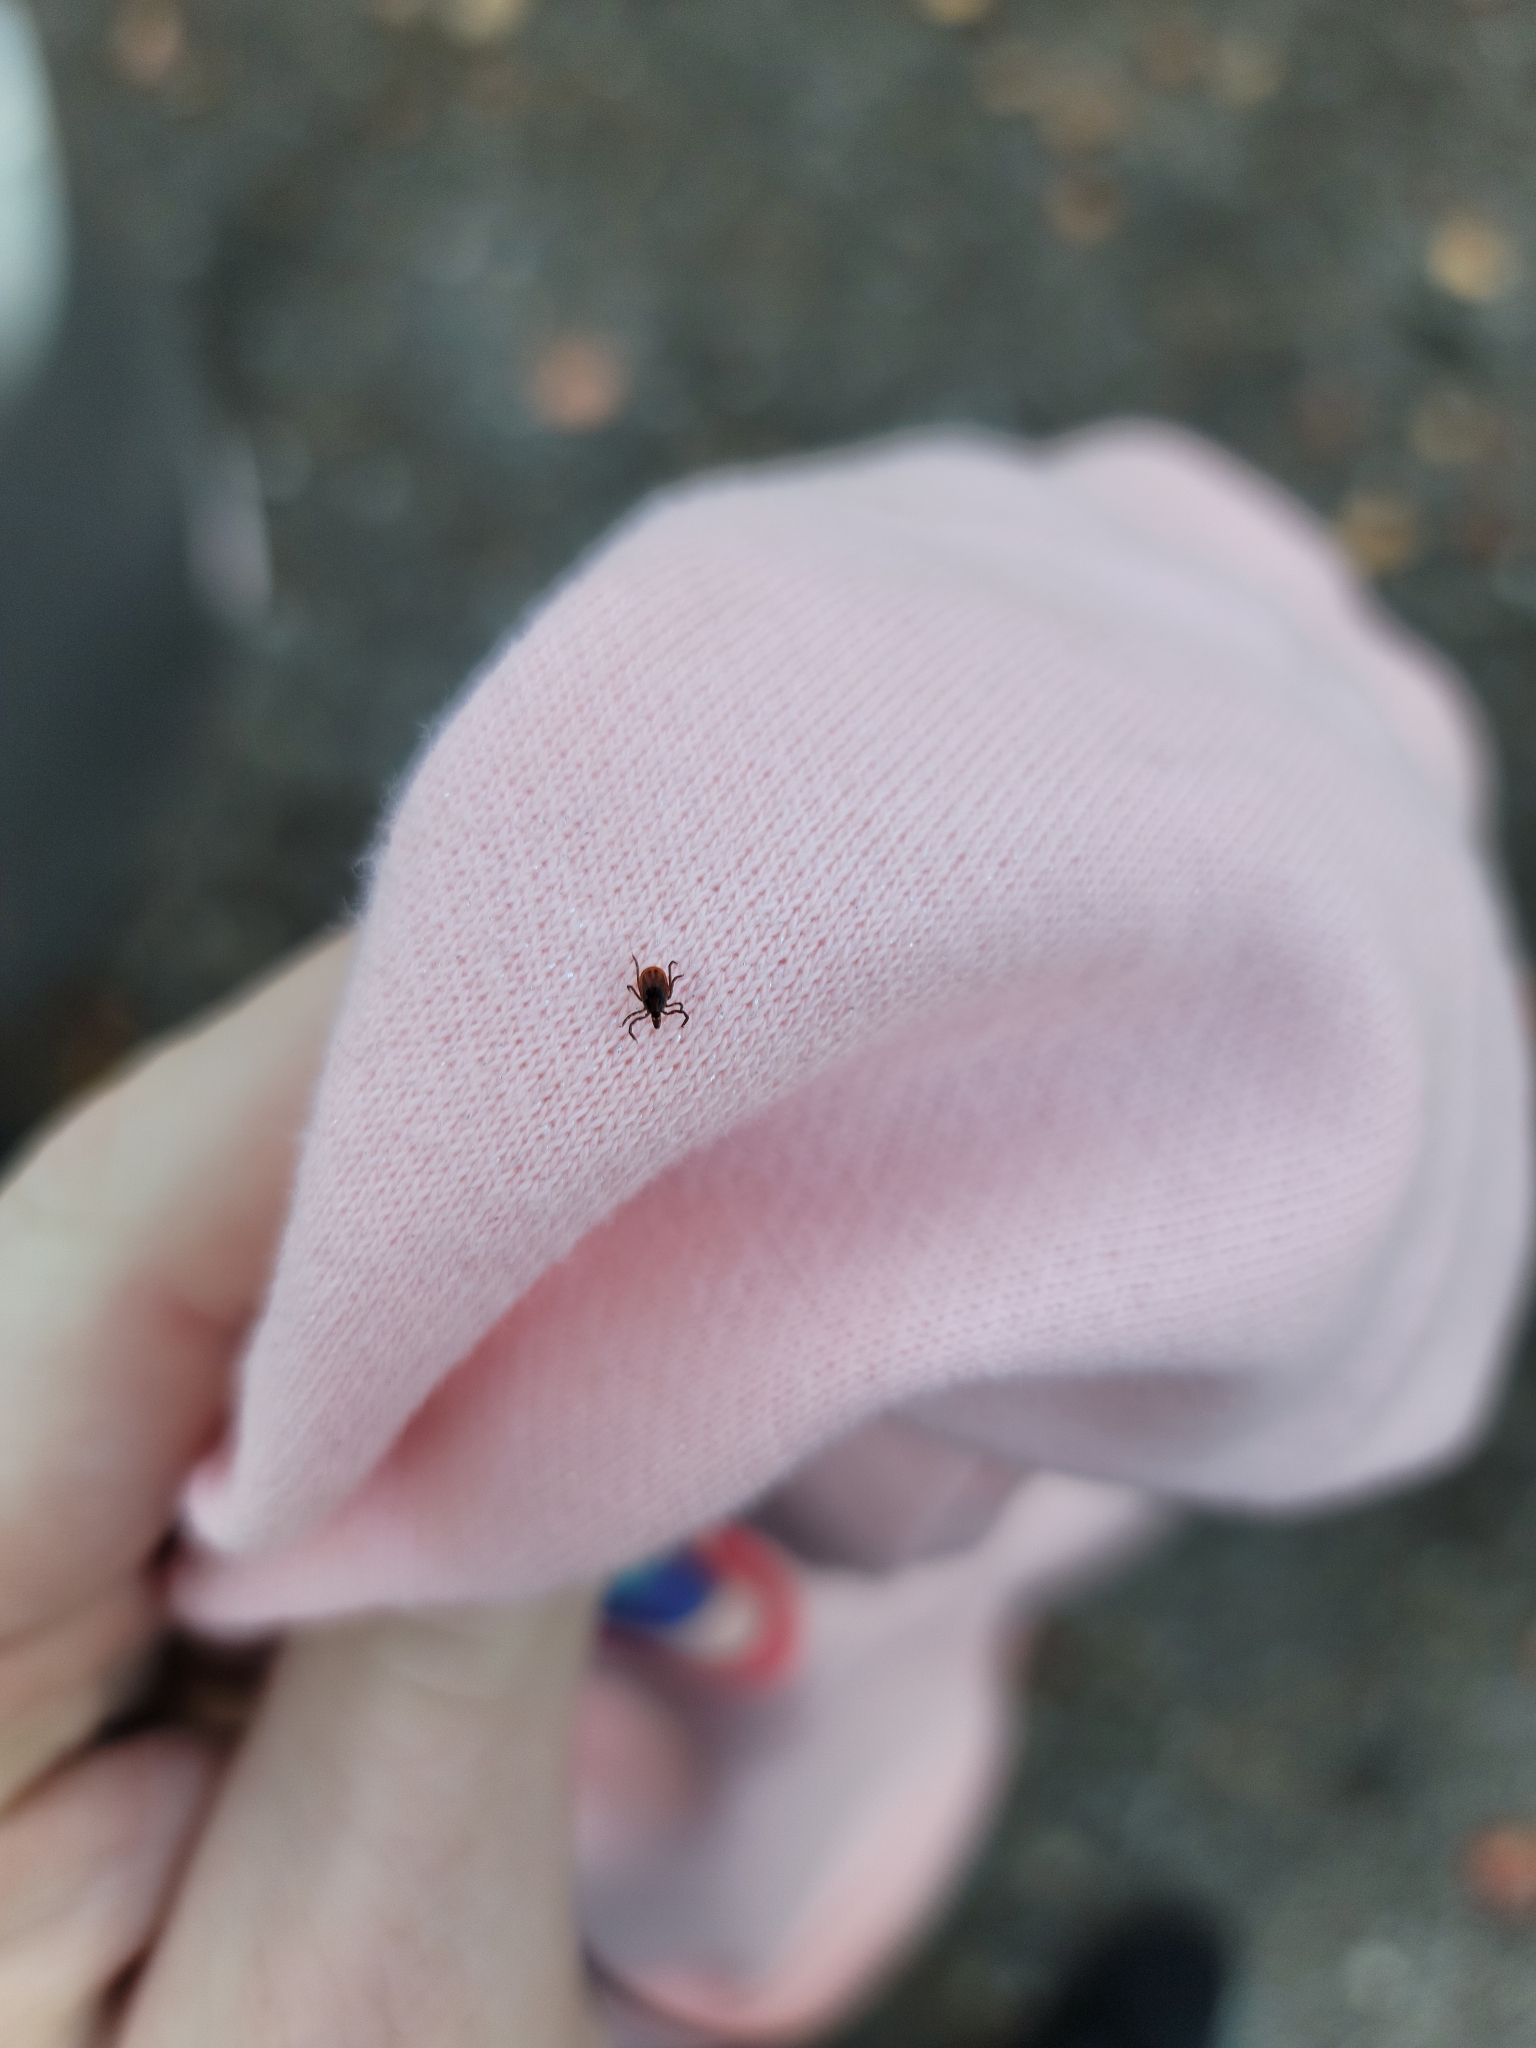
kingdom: Animalia
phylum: Arthropoda
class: Arachnida
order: Ixodida
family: Ixodidae
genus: Ixodes
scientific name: Ixodes scapularis
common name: Black legged tick
